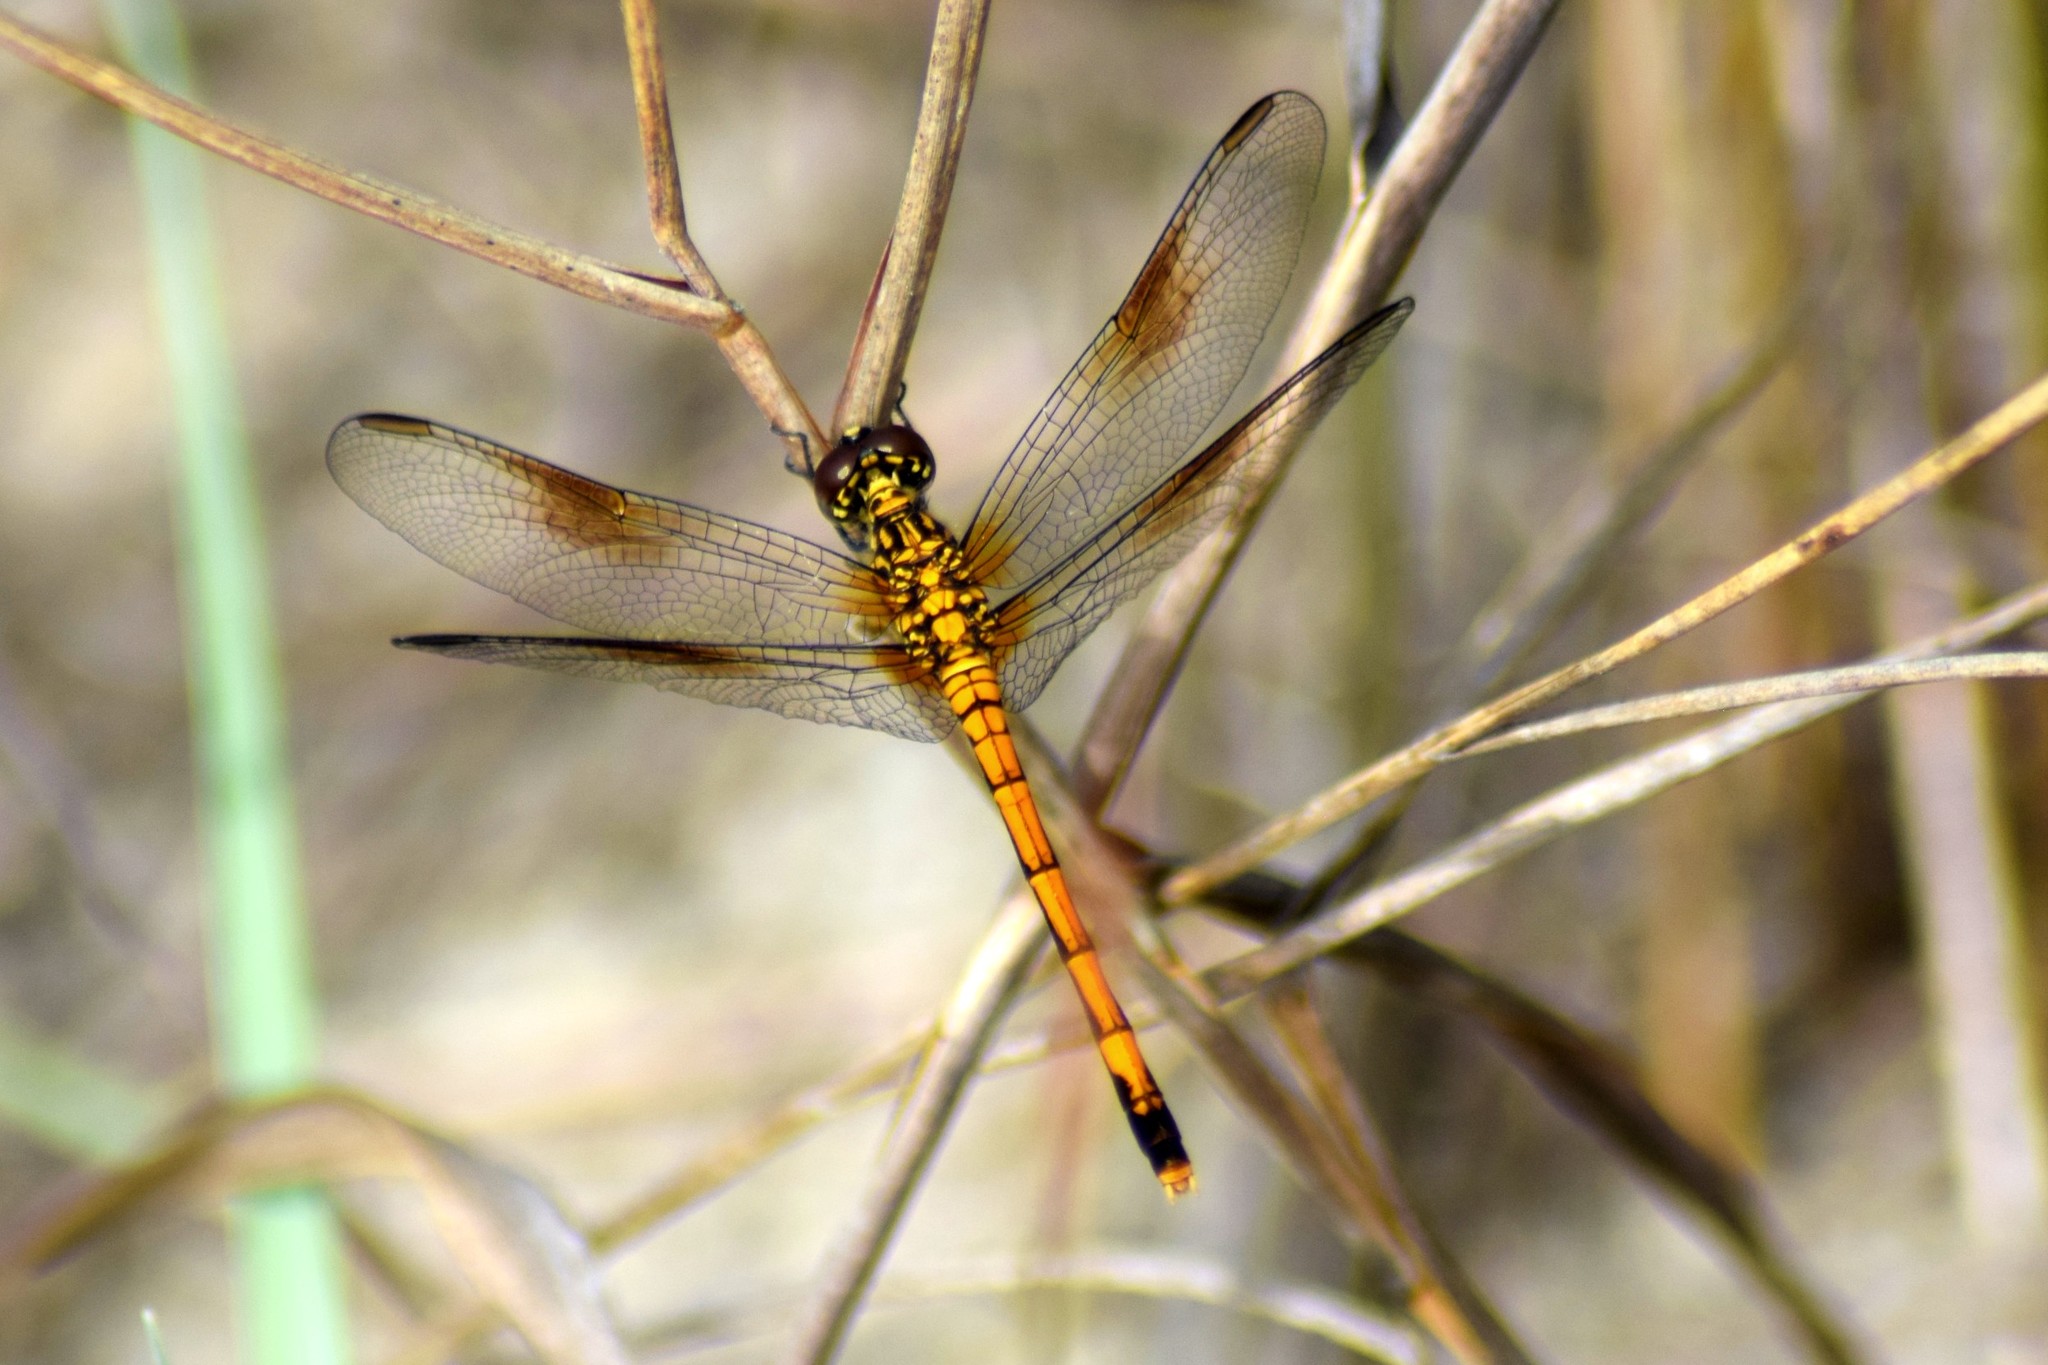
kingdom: Animalia
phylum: Arthropoda
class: Insecta
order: Odonata
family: Libellulidae
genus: Erythrodiplax
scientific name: Erythrodiplax berenice
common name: Seaside dragonlet
